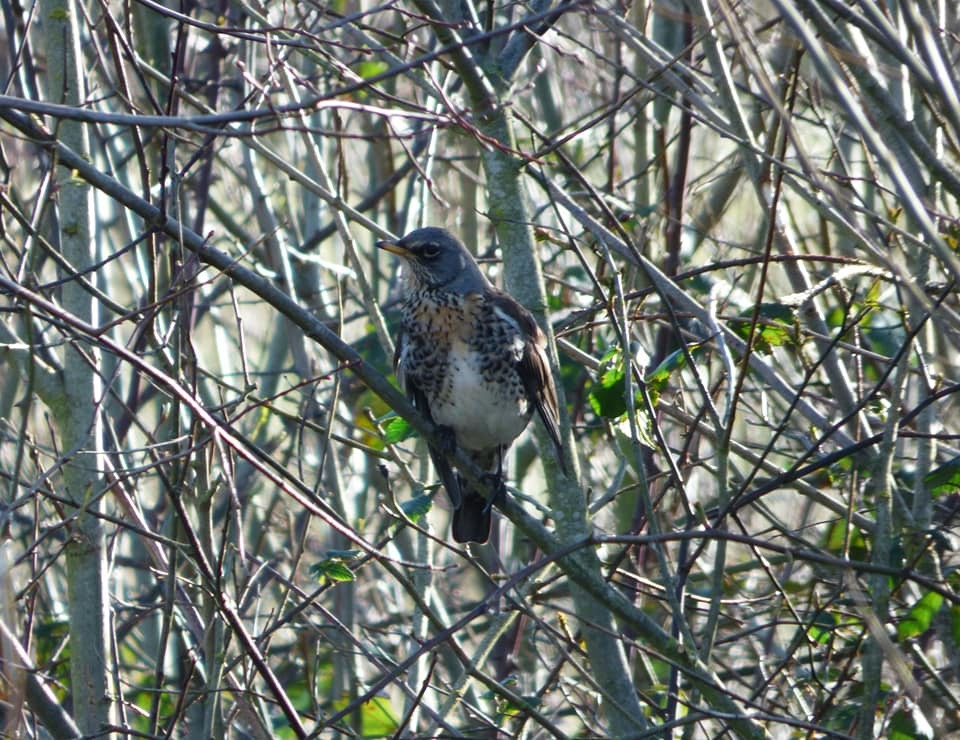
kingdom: Animalia
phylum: Chordata
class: Aves
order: Passeriformes
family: Turdidae
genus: Turdus
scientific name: Turdus pilaris
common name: Fieldfare
